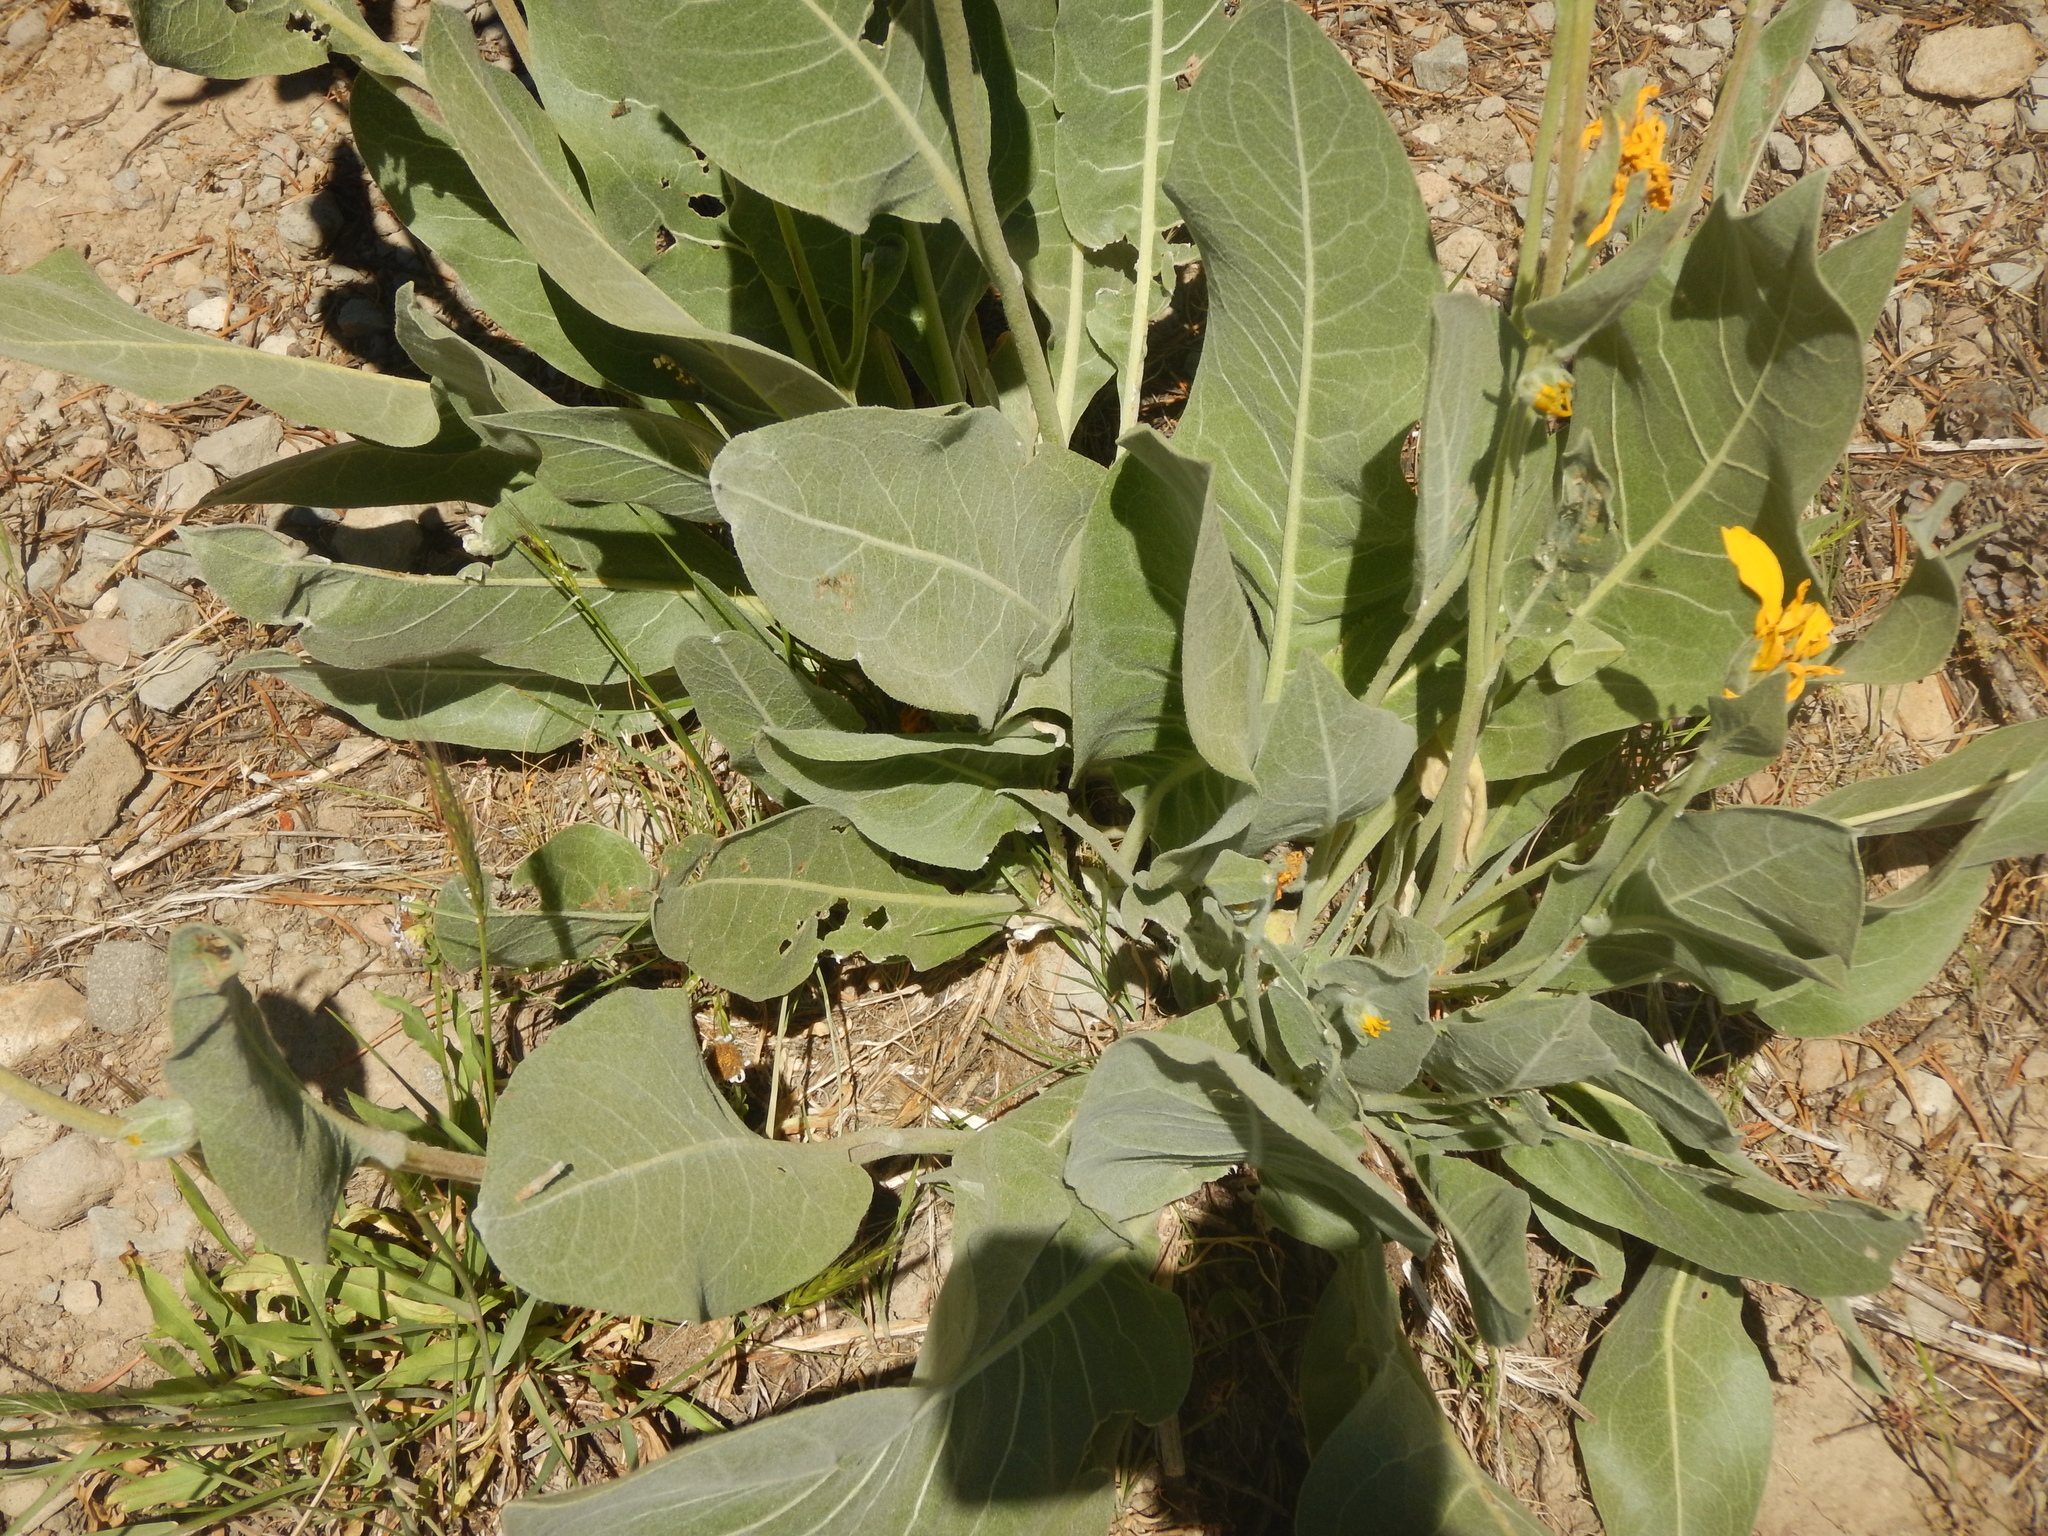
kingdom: Plantae
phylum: Tracheophyta
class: Magnoliopsida
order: Asterales
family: Asteraceae
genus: Wyethia
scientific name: Wyethia mollis
